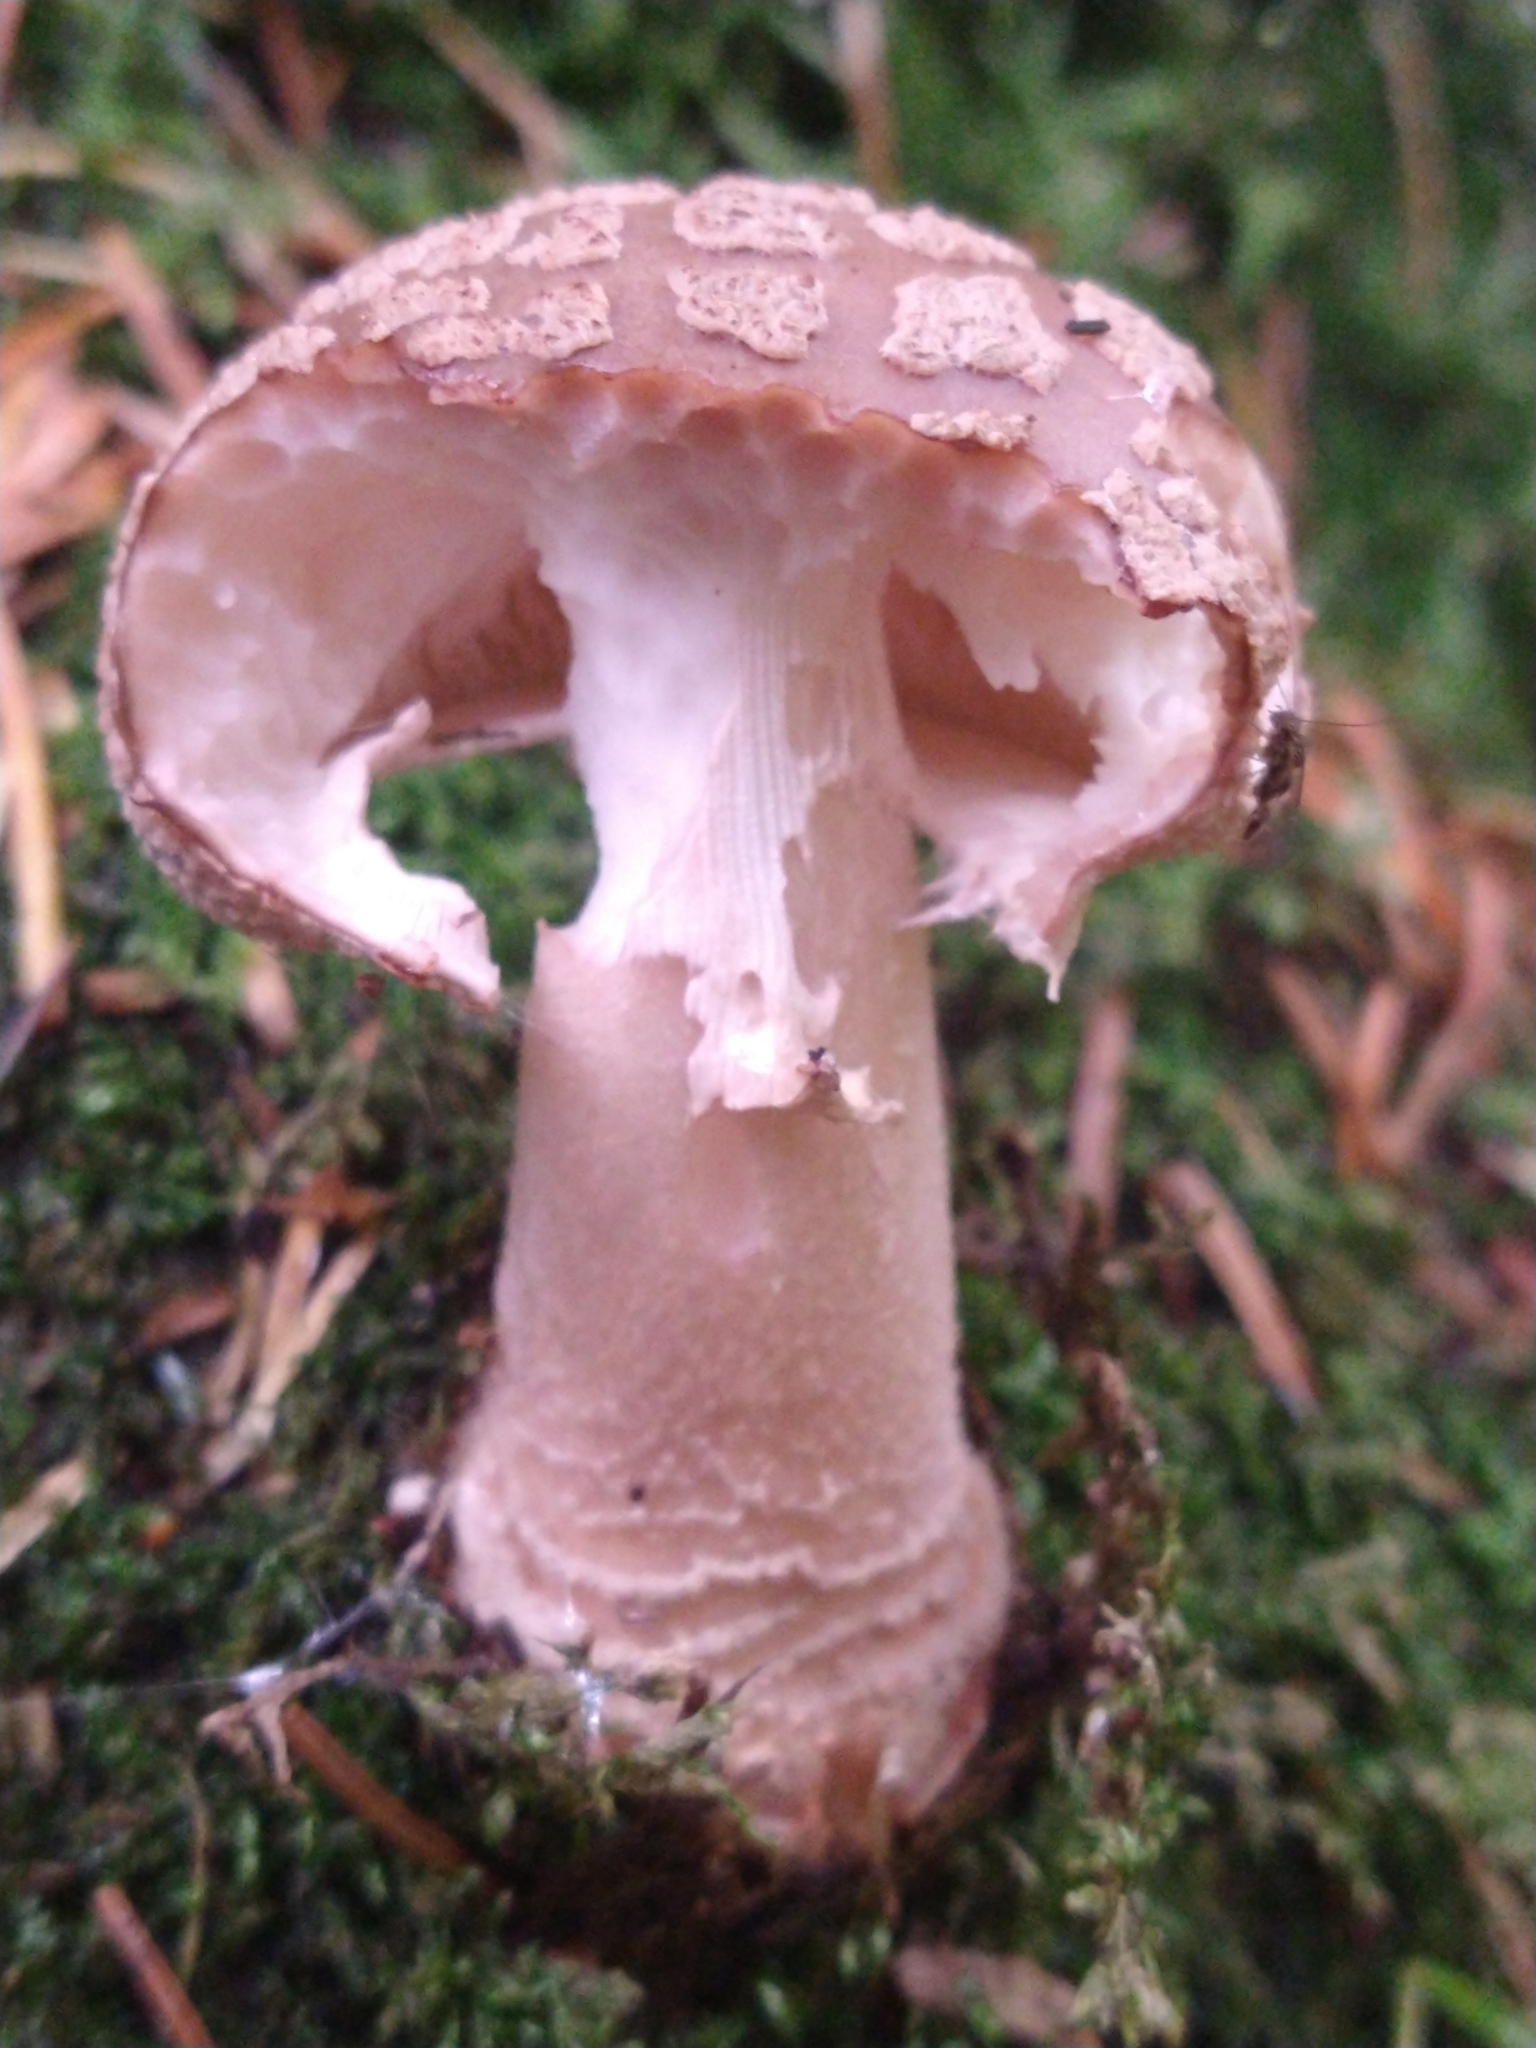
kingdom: Fungi
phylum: Basidiomycota
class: Agaricomycetes
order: Agaricales
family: Amanitaceae
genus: Amanita
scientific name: Amanita rubescens
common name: Blusher
